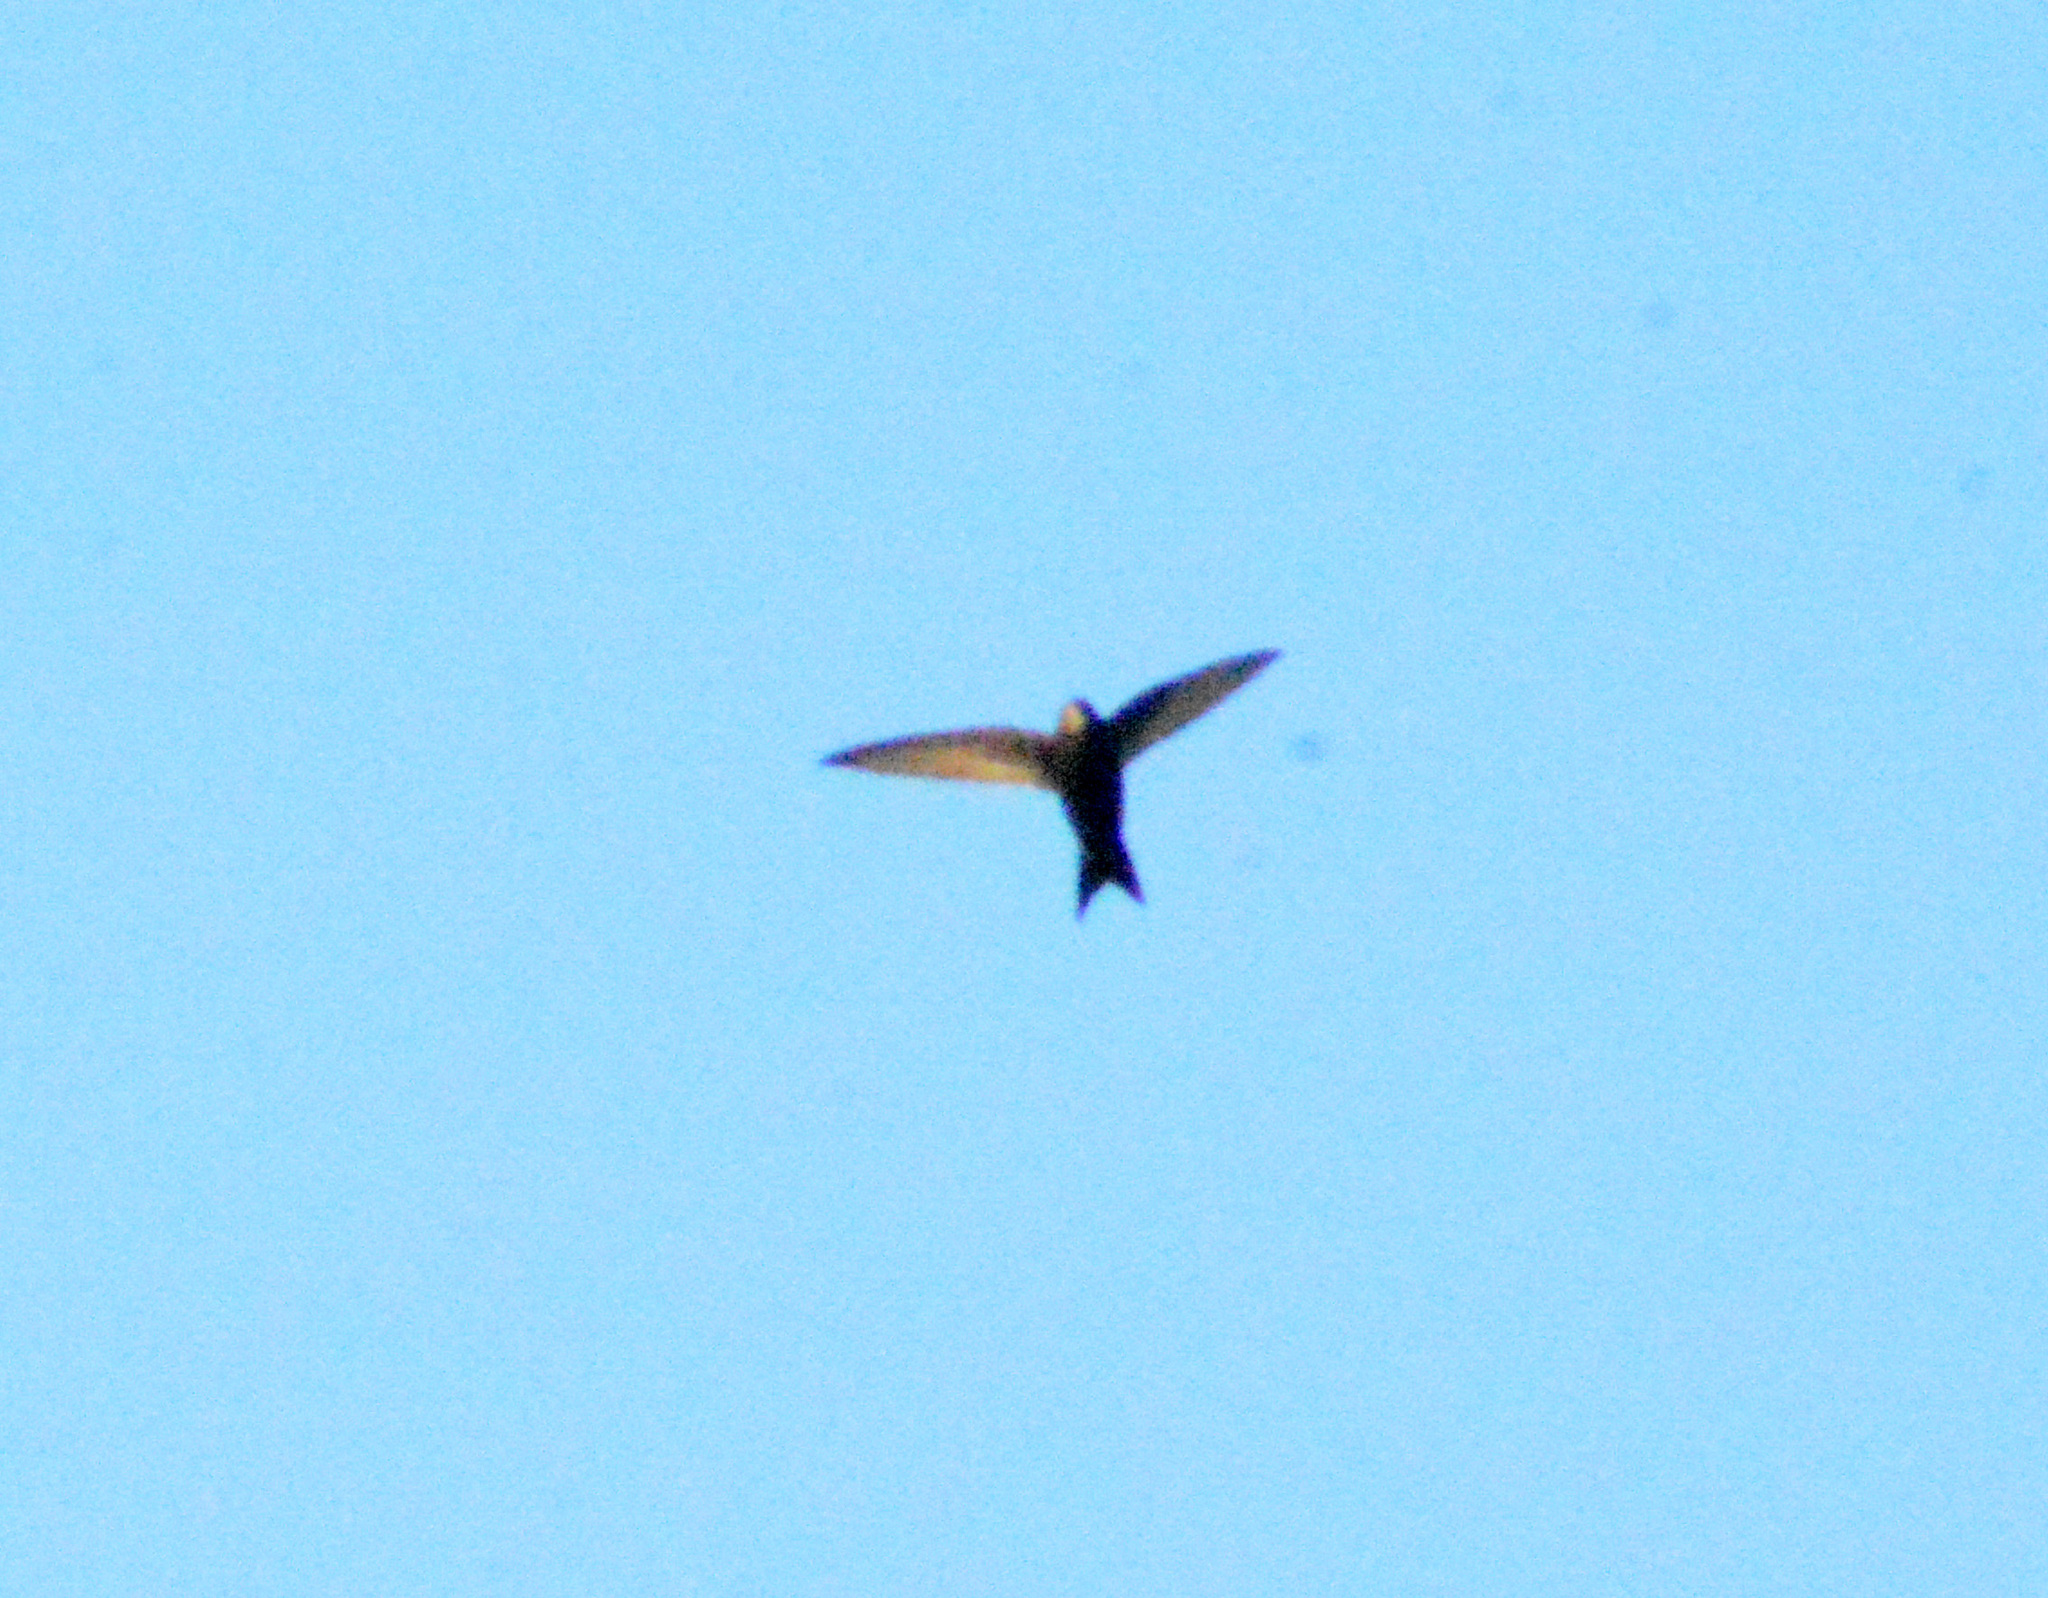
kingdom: Animalia
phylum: Chordata
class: Aves
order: Apodiformes
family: Apodidae
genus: Apus
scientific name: Apus apus
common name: Common swift
